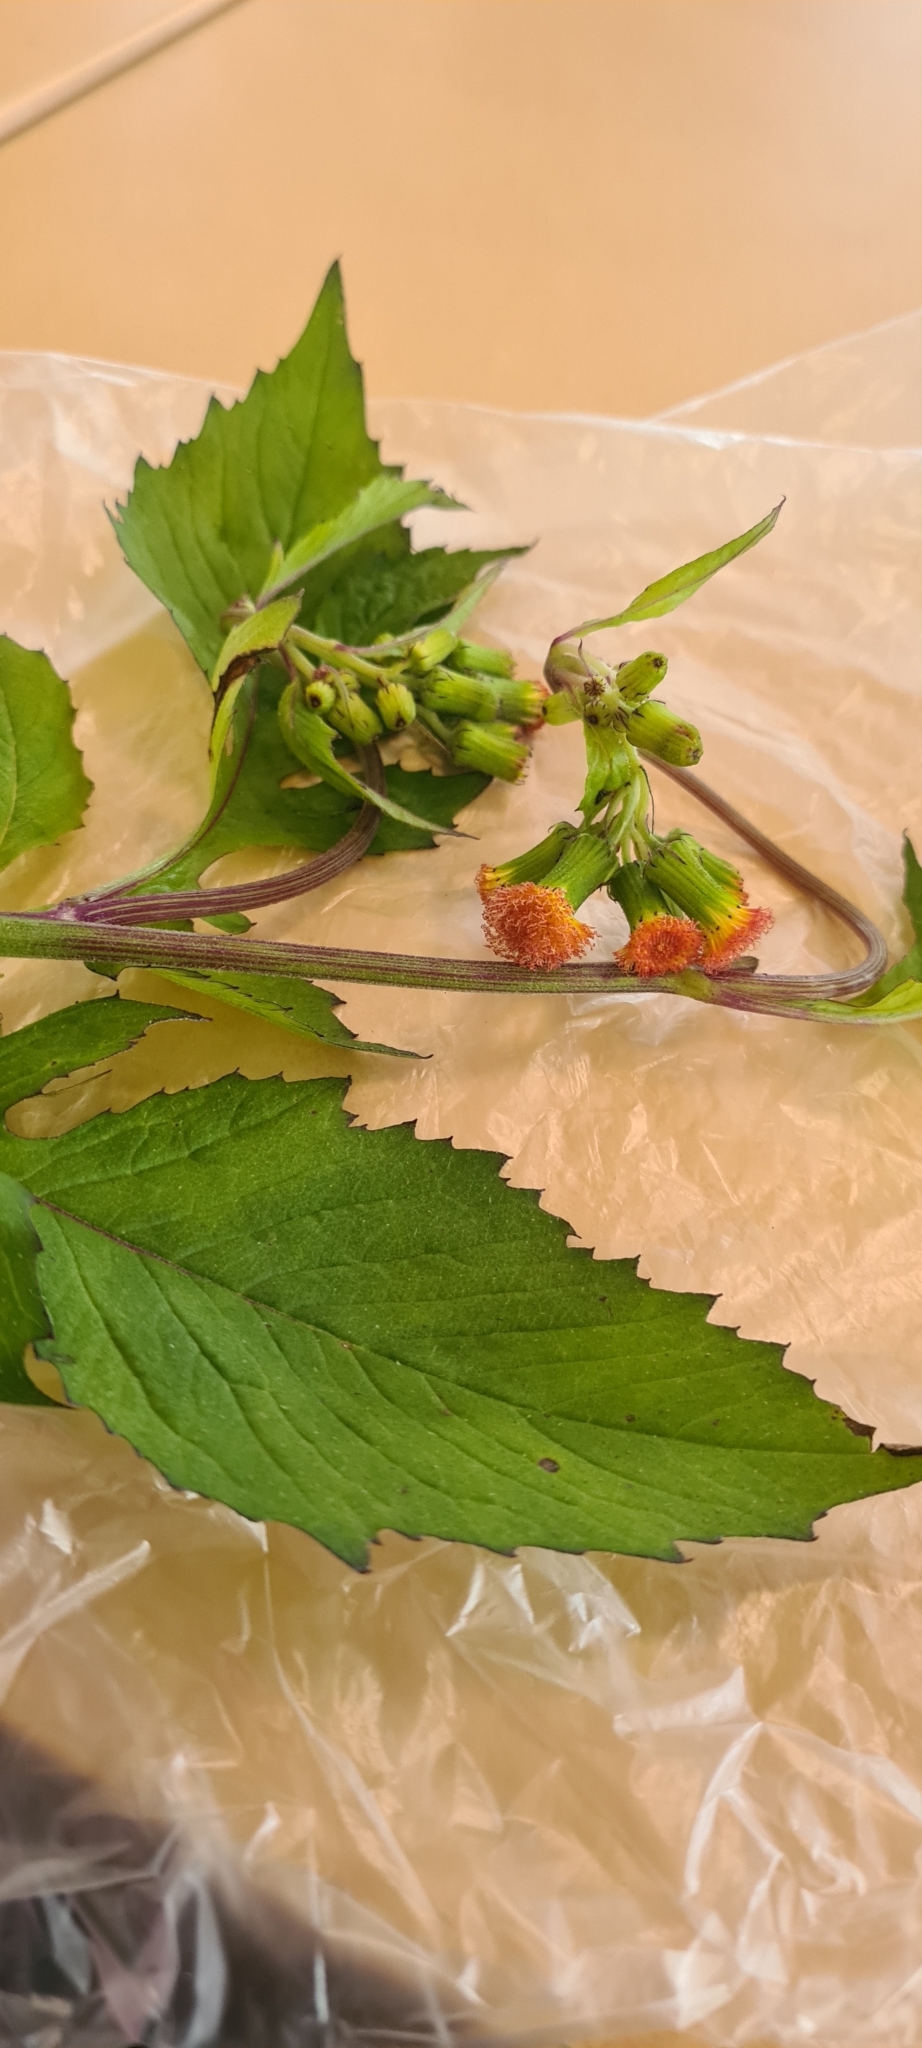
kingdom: Plantae
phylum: Tracheophyta
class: Magnoliopsida
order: Asterales
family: Asteraceae
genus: Crassocephalum
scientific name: Crassocephalum crepidioides
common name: Redflower ragleaf
